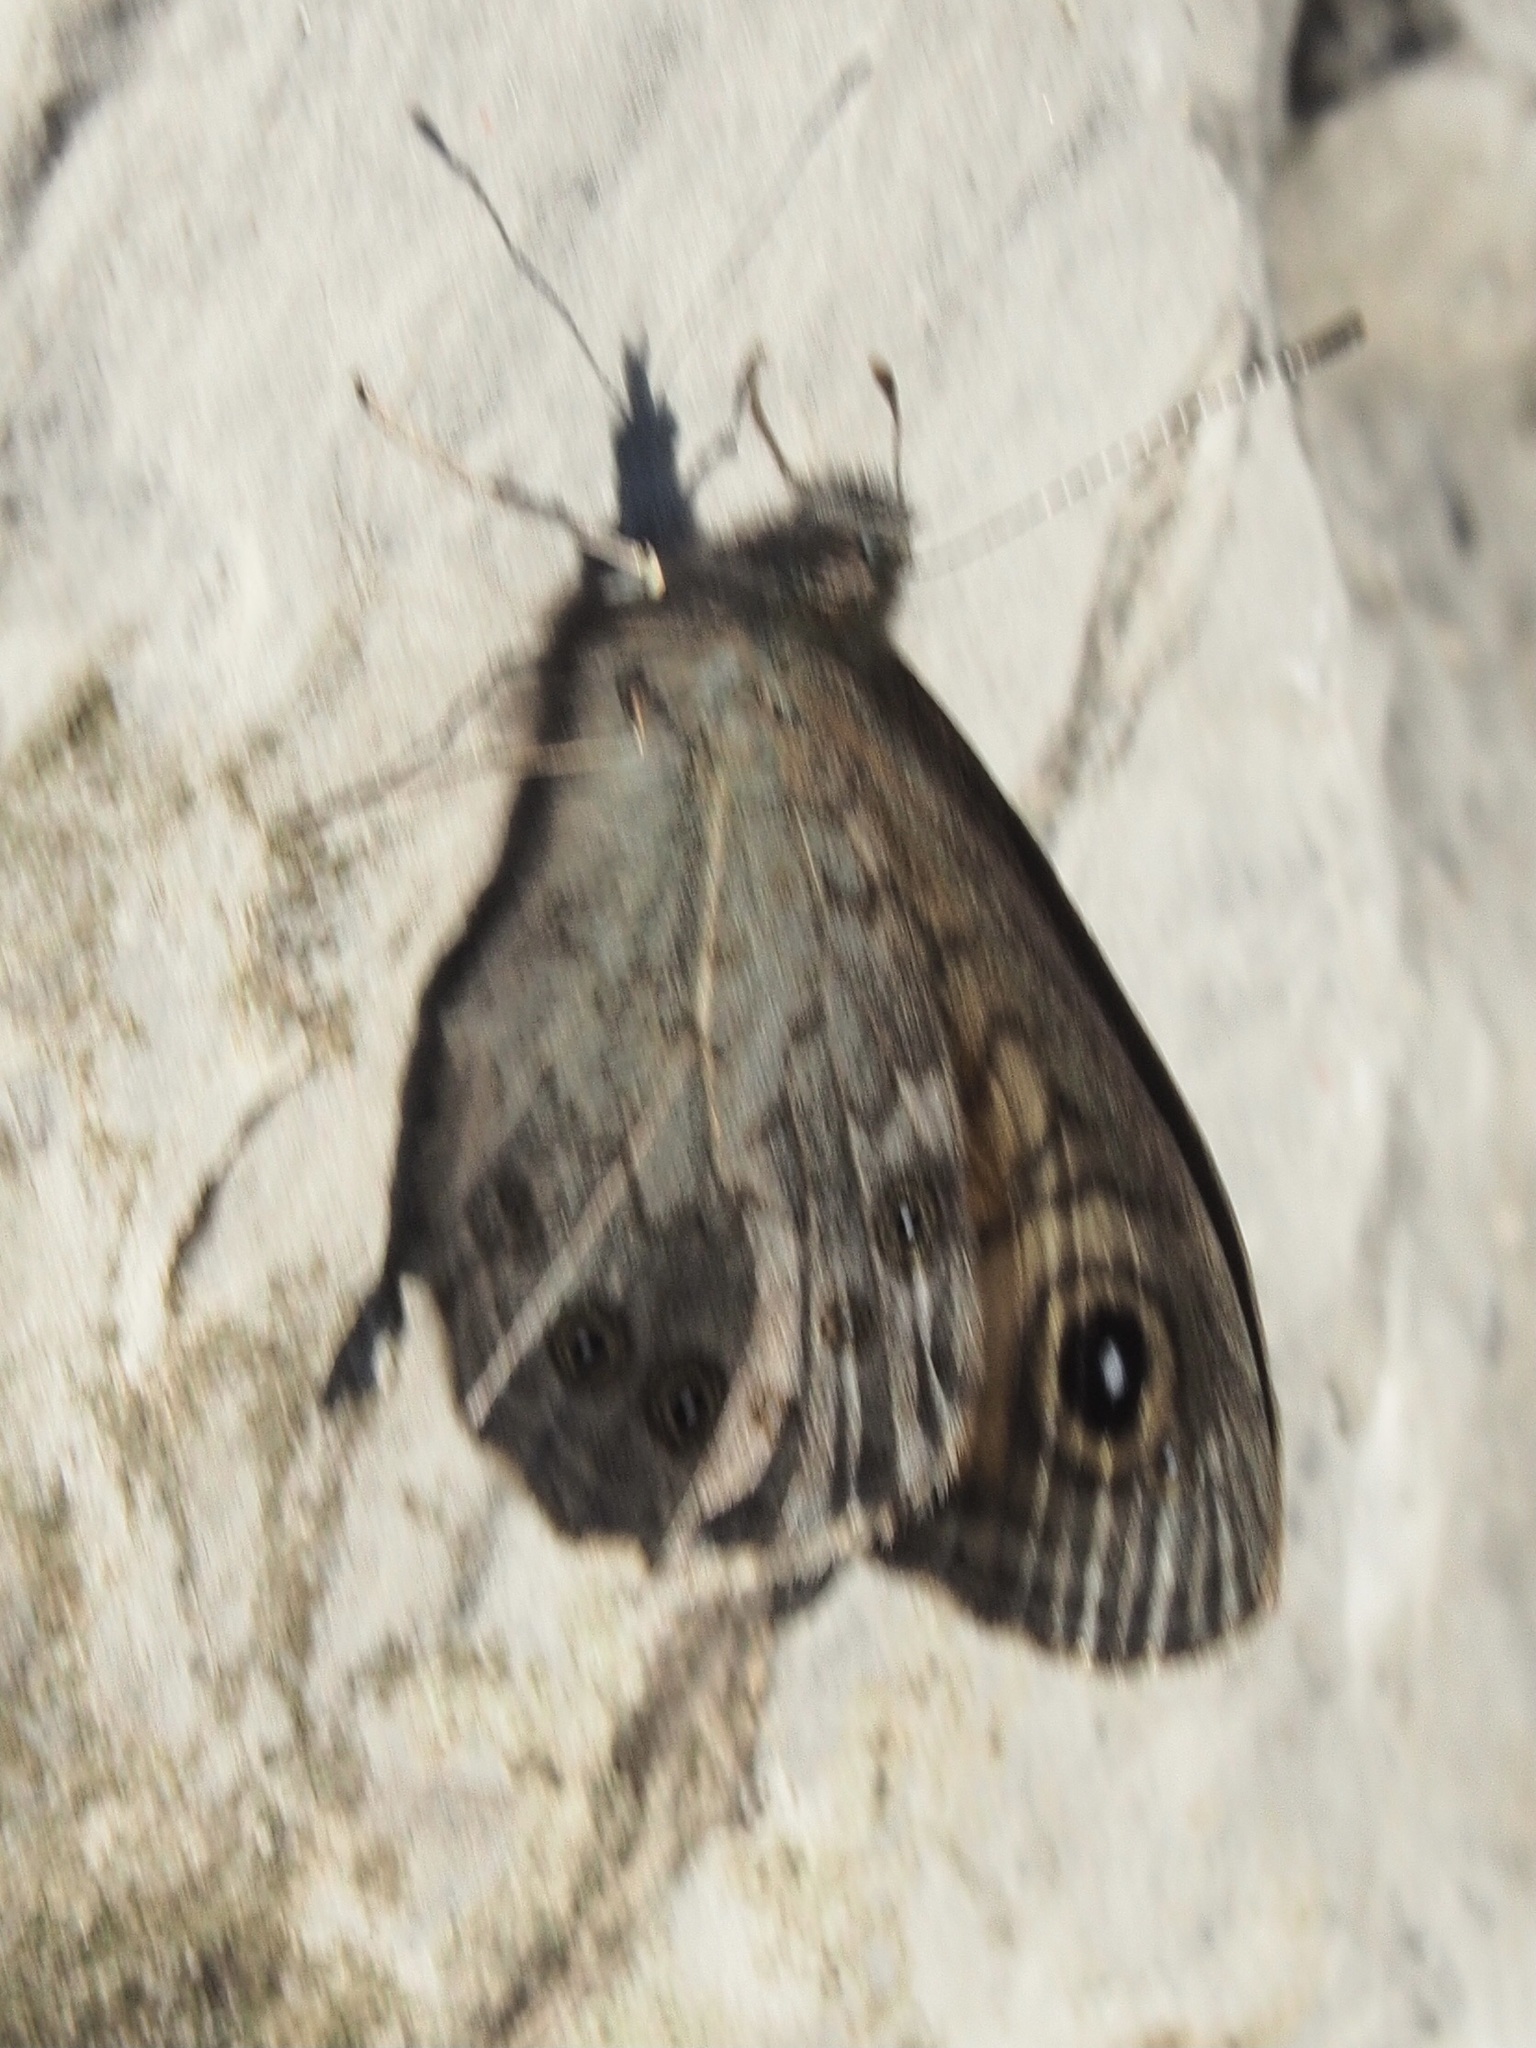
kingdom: Animalia
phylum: Arthropoda
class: Insecta
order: Lepidoptera
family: Nymphalidae
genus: Pararge
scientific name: Pararge Lasiommata maera
